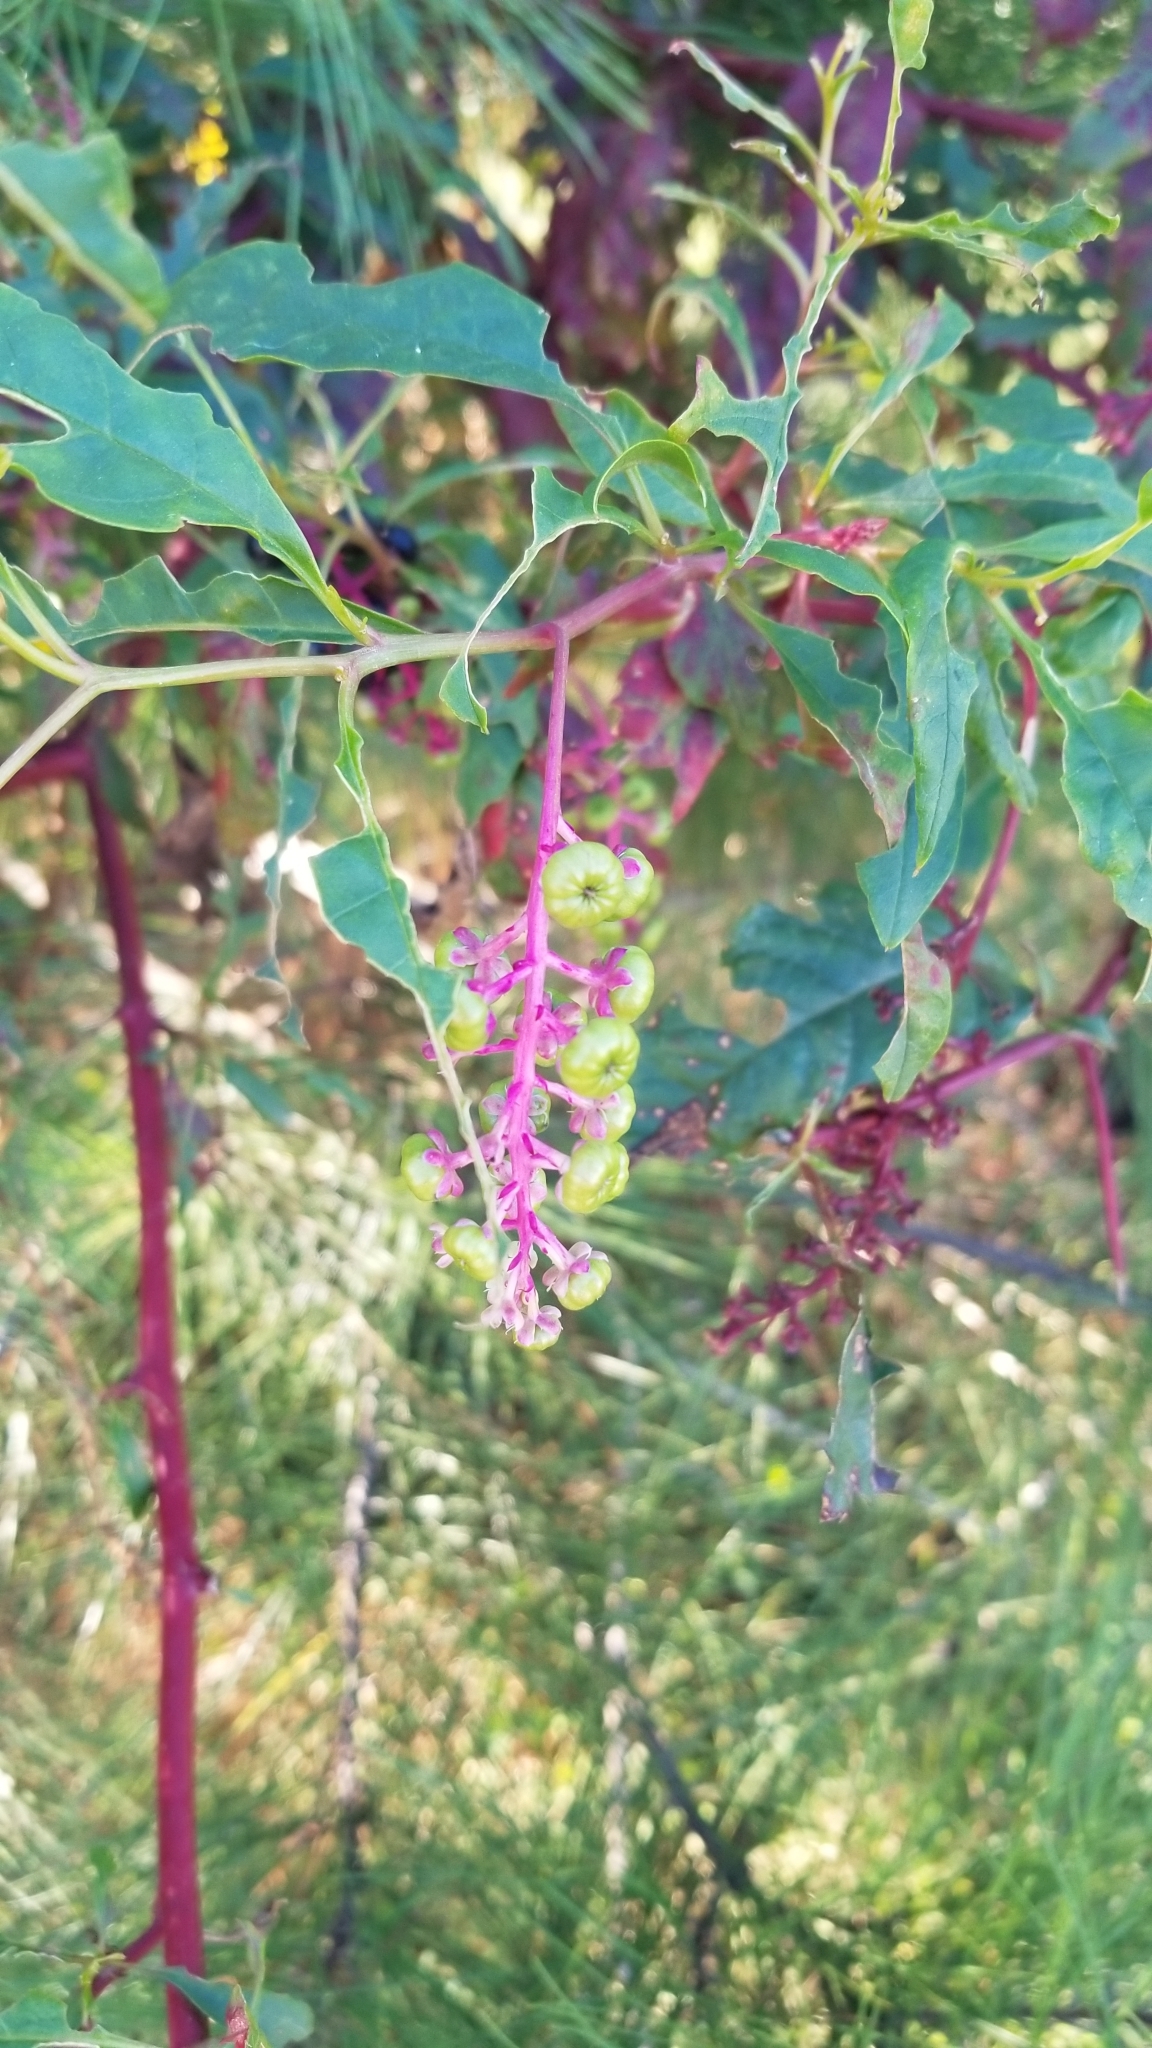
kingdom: Plantae
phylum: Tracheophyta
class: Magnoliopsida
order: Caryophyllales
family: Phytolaccaceae
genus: Phytolacca
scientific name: Phytolacca americana
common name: American pokeweed
